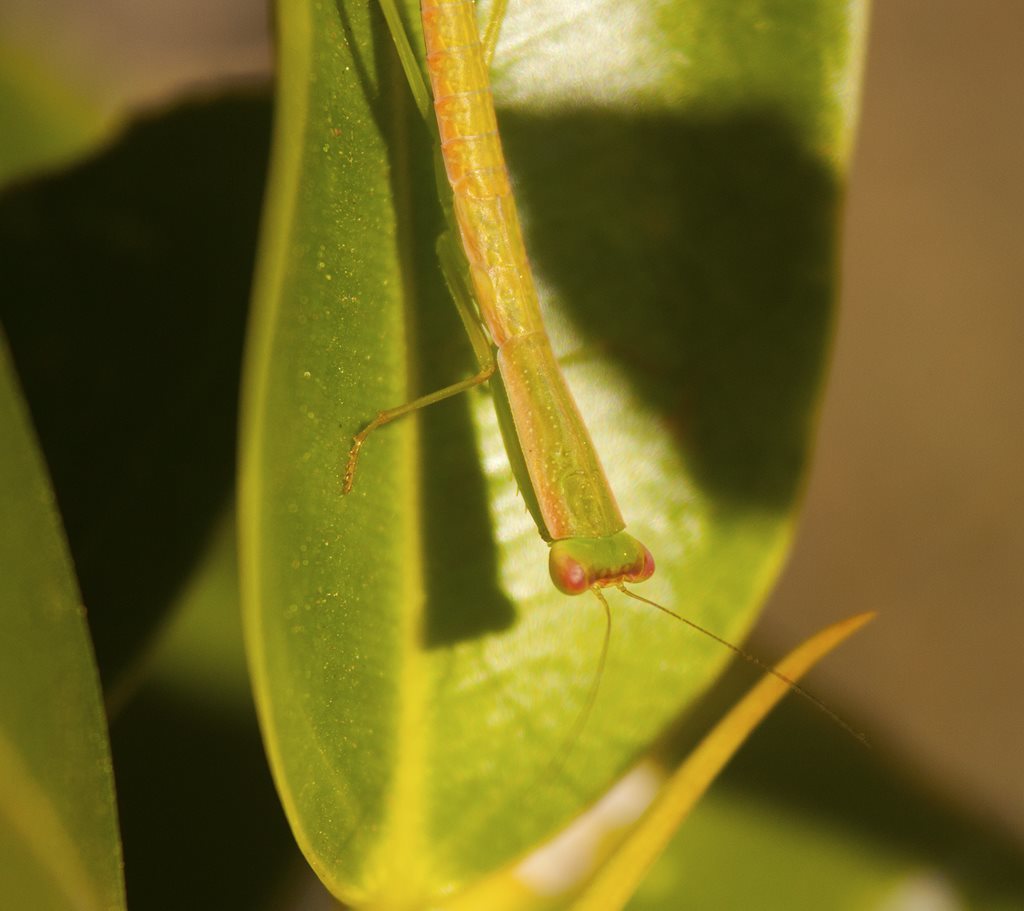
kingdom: Animalia
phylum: Arthropoda
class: Insecta
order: Mantodea
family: Mantidae
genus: Orthodera
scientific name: Orthodera ministralis
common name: Mantis
